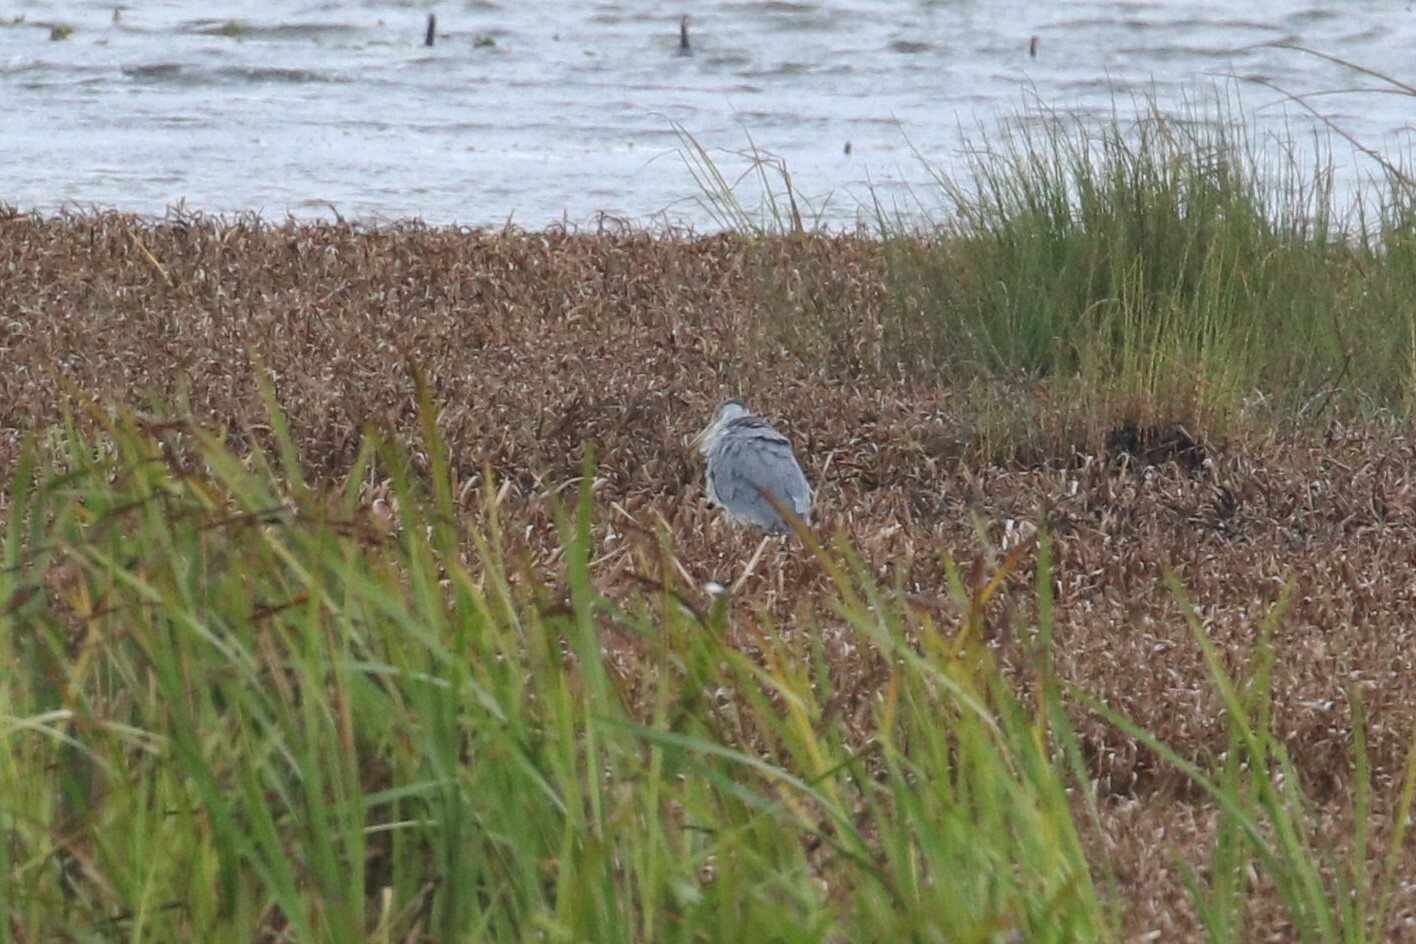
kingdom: Animalia
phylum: Chordata
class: Aves
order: Pelecaniformes
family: Ardeidae
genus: Ardea
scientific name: Ardea cinerea
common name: Grey heron
